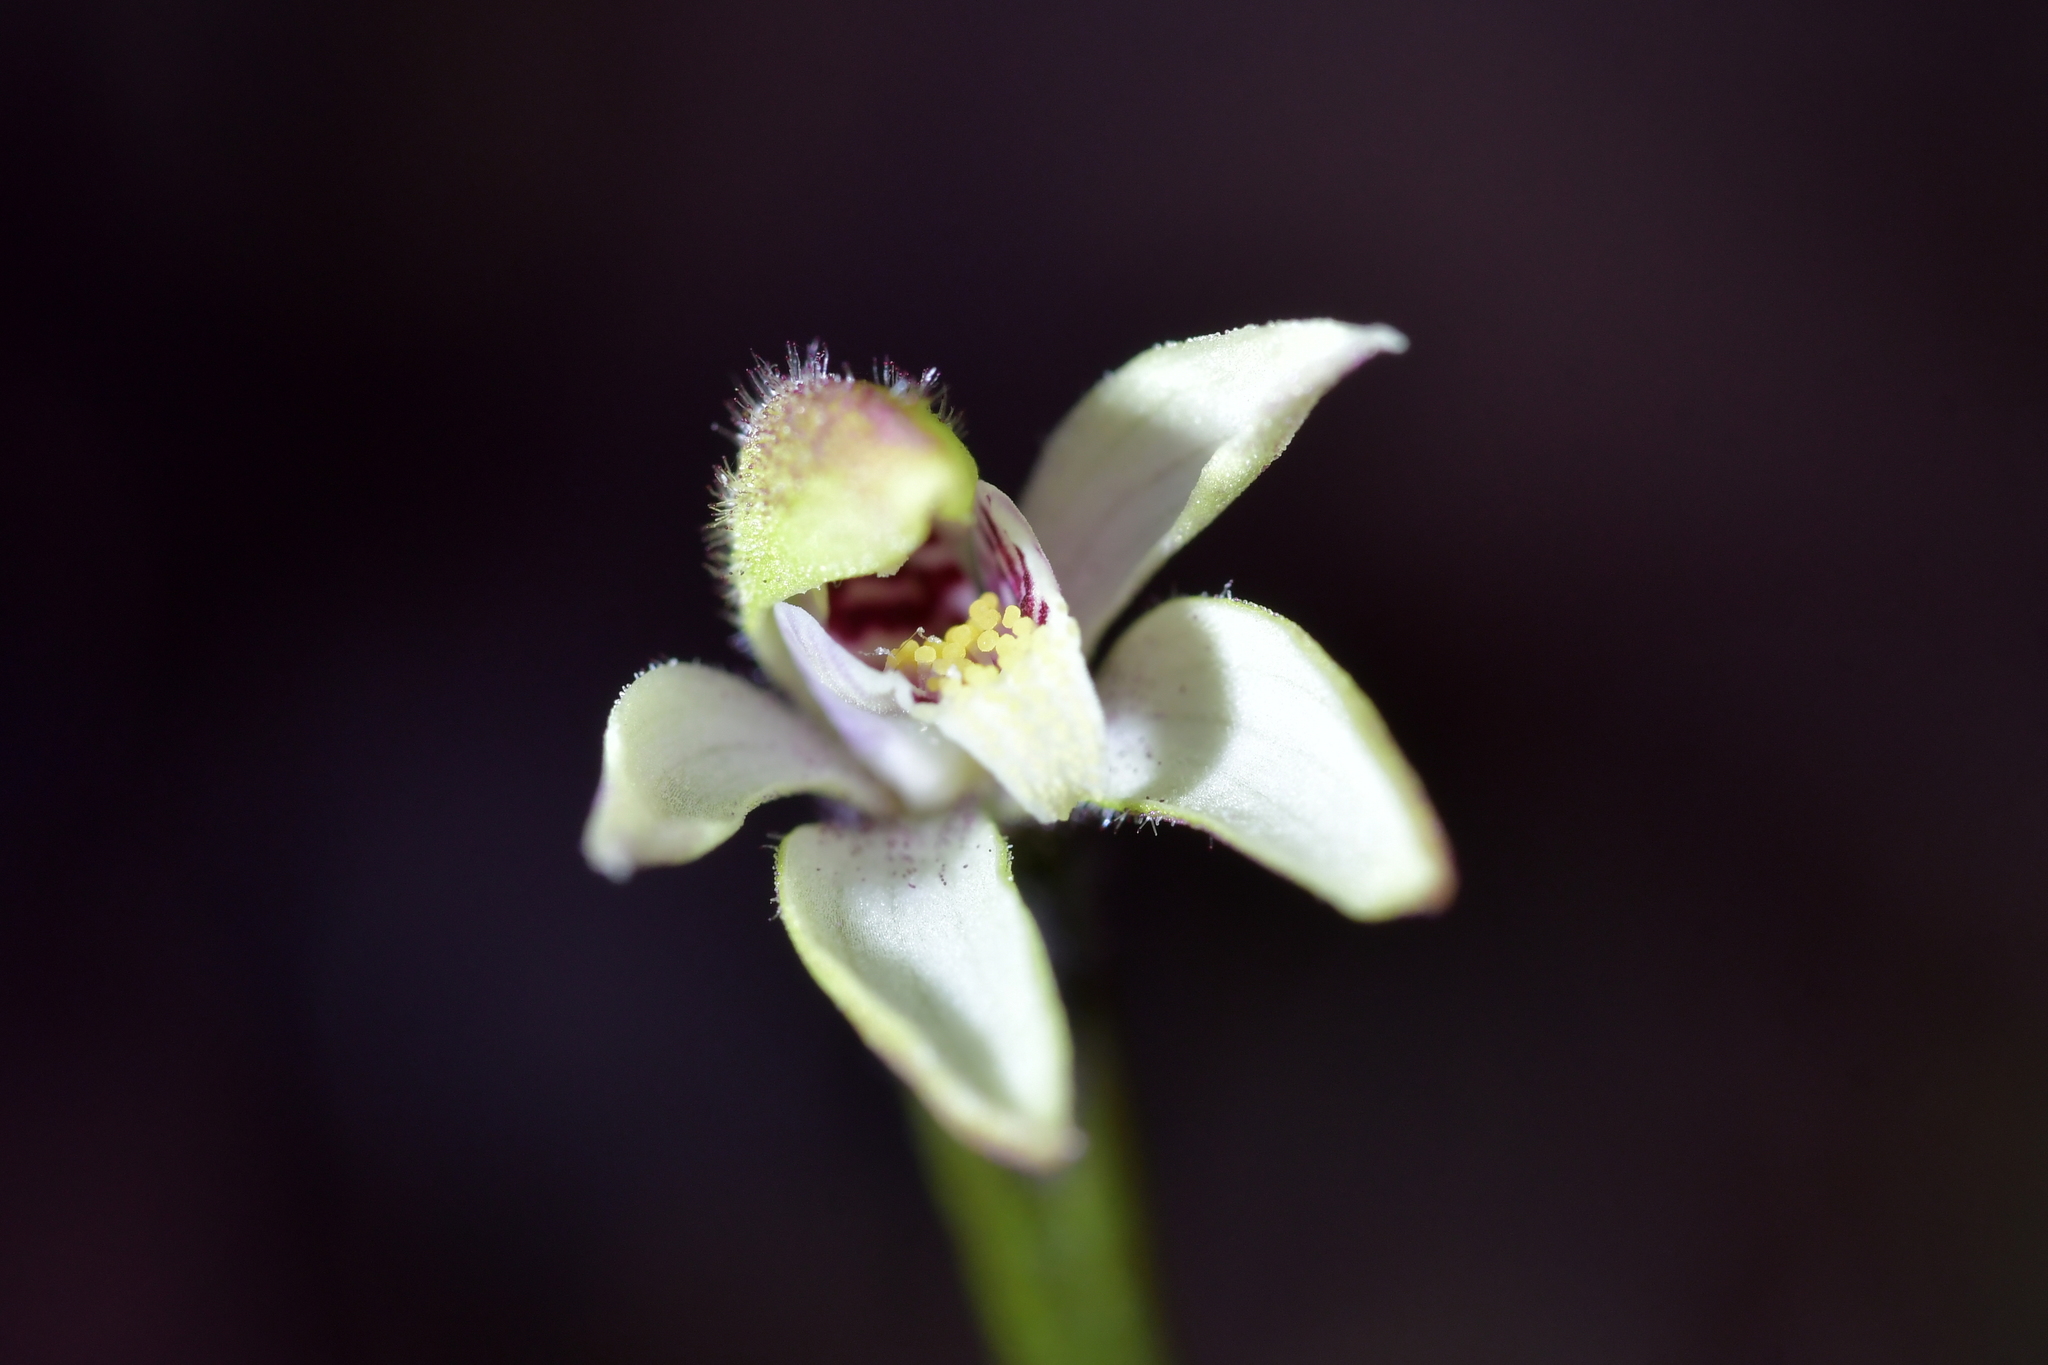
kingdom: Plantae
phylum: Tracheophyta
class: Liliopsida
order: Asparagales
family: Orchidaceae
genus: Caladenia
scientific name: Caladenia lyallii
